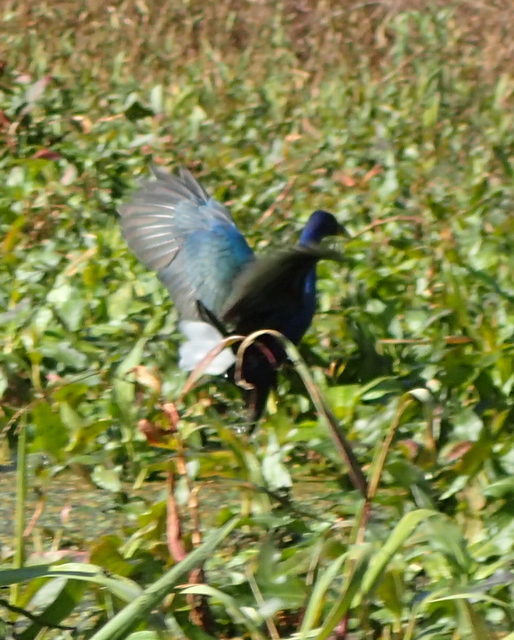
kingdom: Animalia
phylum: Chordata
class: Aves
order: Gruiformes
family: Rallidae
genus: Porphyrio
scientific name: Porphyrio martinica
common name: Purple gallinule
